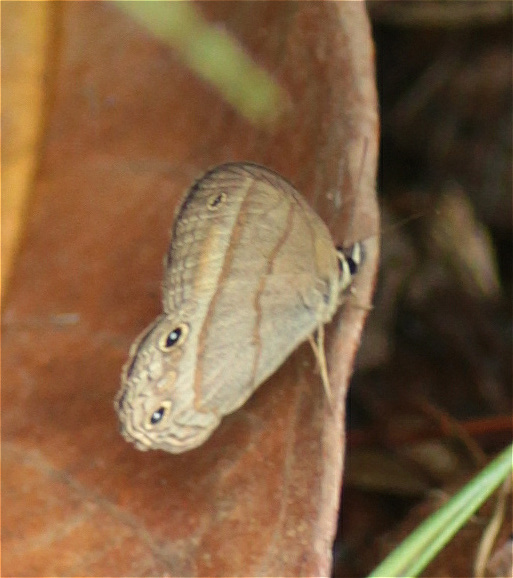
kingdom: Animalia
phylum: Arthropoda
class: Insecta
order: Lepidoptera
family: Nymphalidae
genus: Euptychia
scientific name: Euptychia Cissia pompilia
